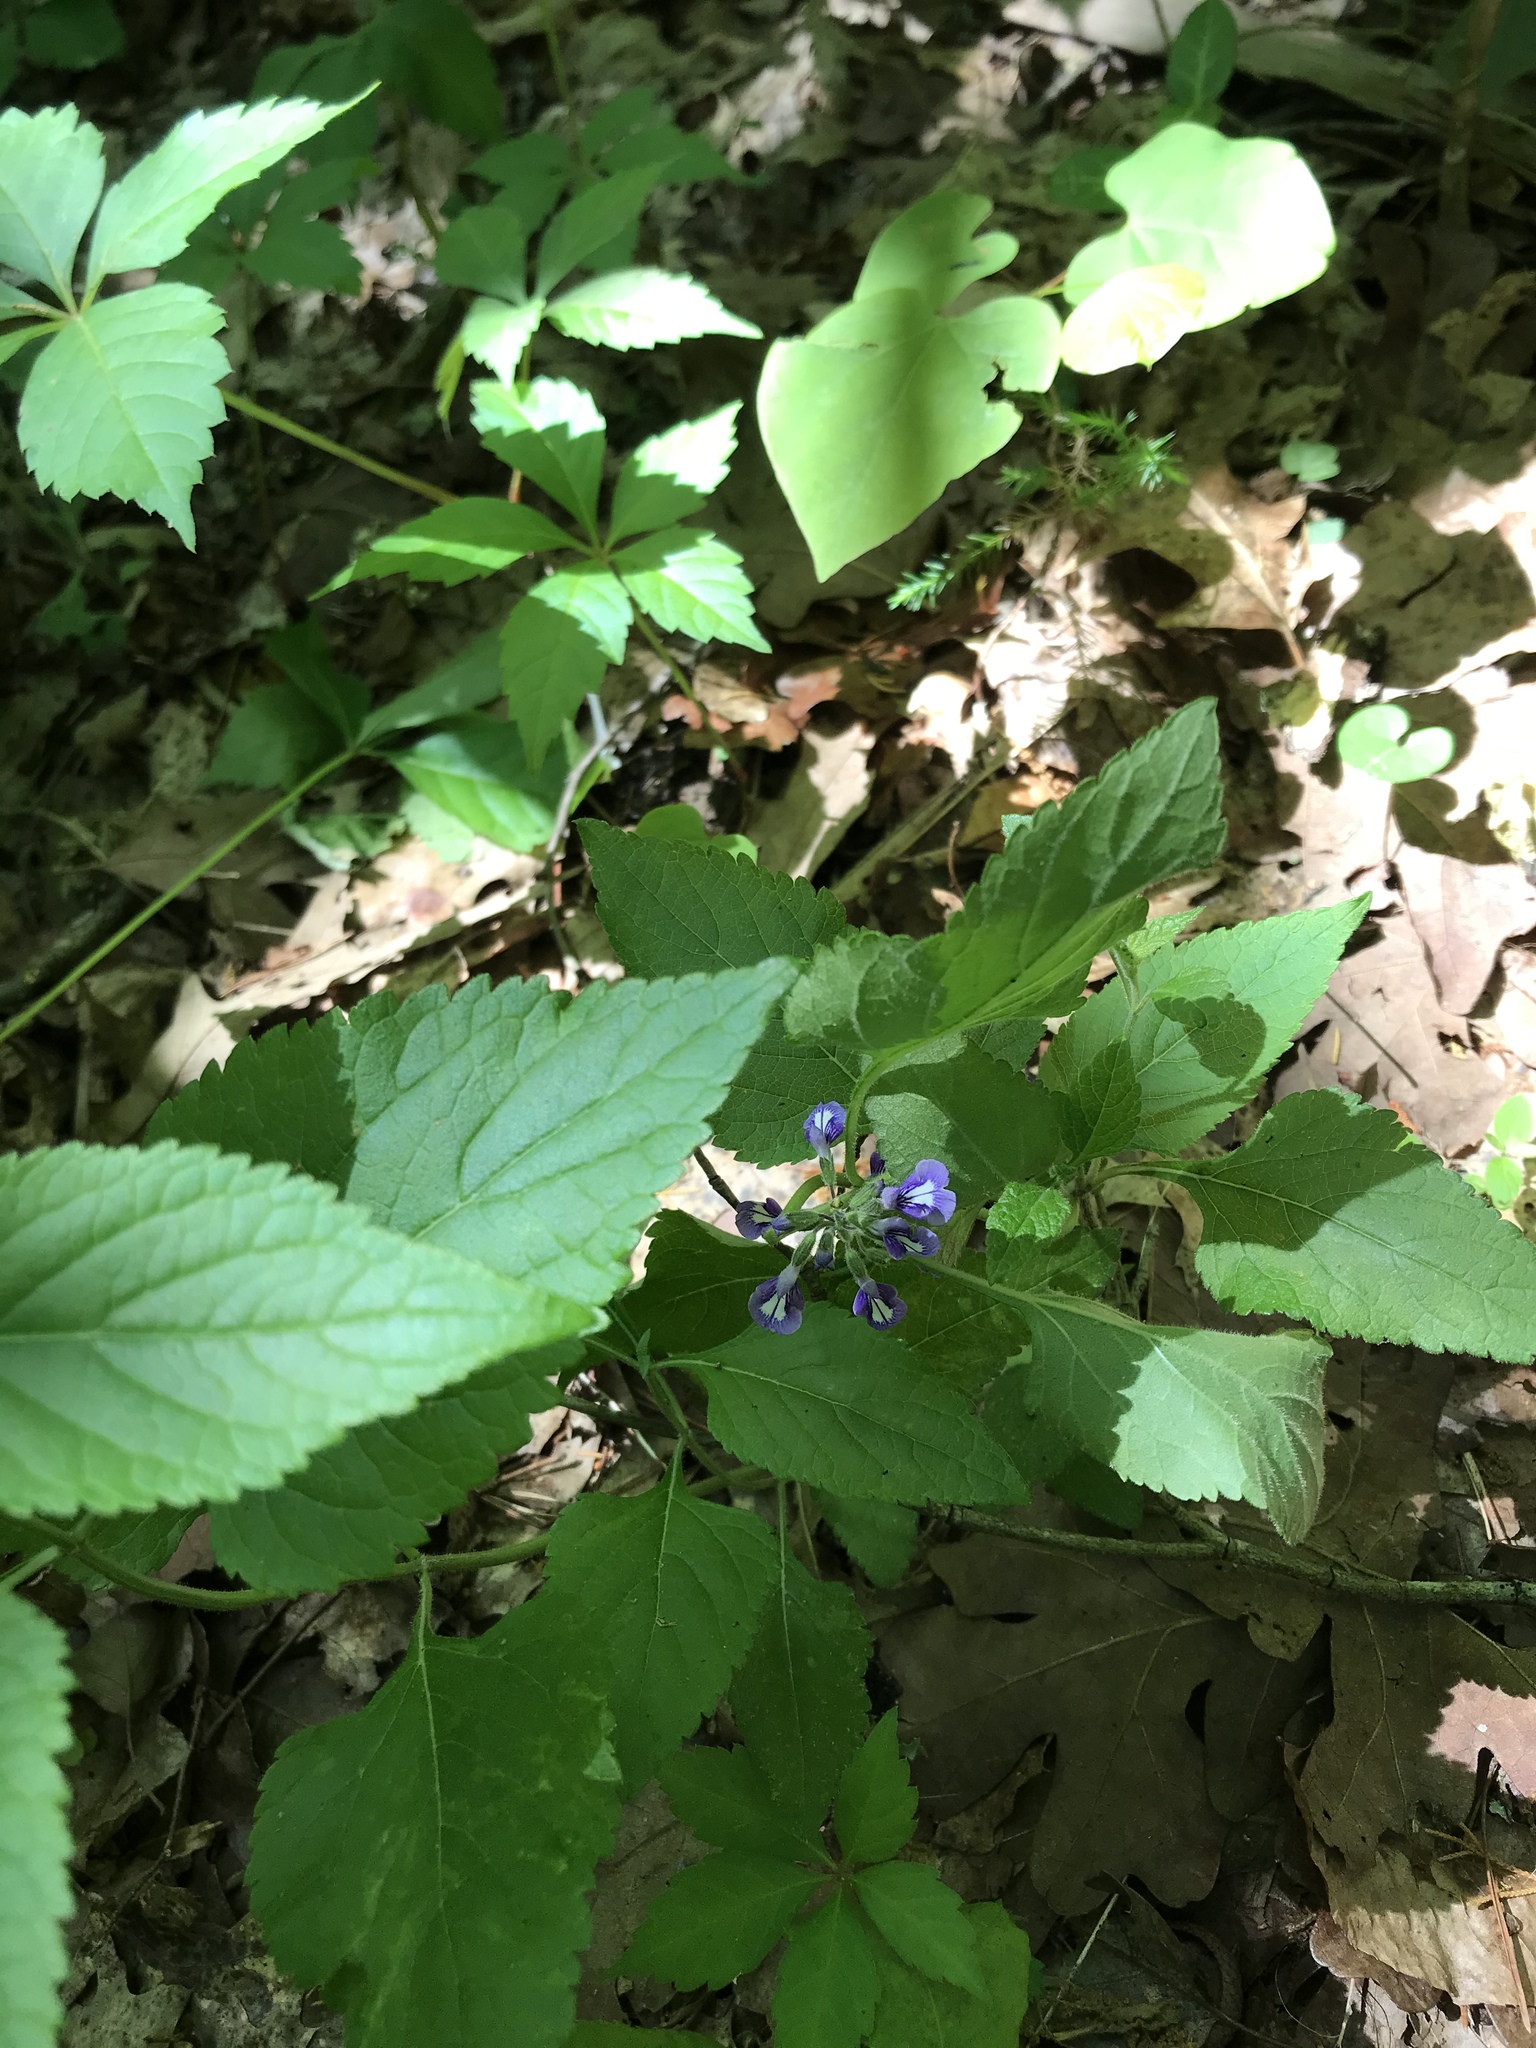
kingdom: Plantae
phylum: Tracheophyta
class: Magnoliopsida
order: Lamiales
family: Lamiaceae
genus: Salvia
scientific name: Salvia urticifolia
